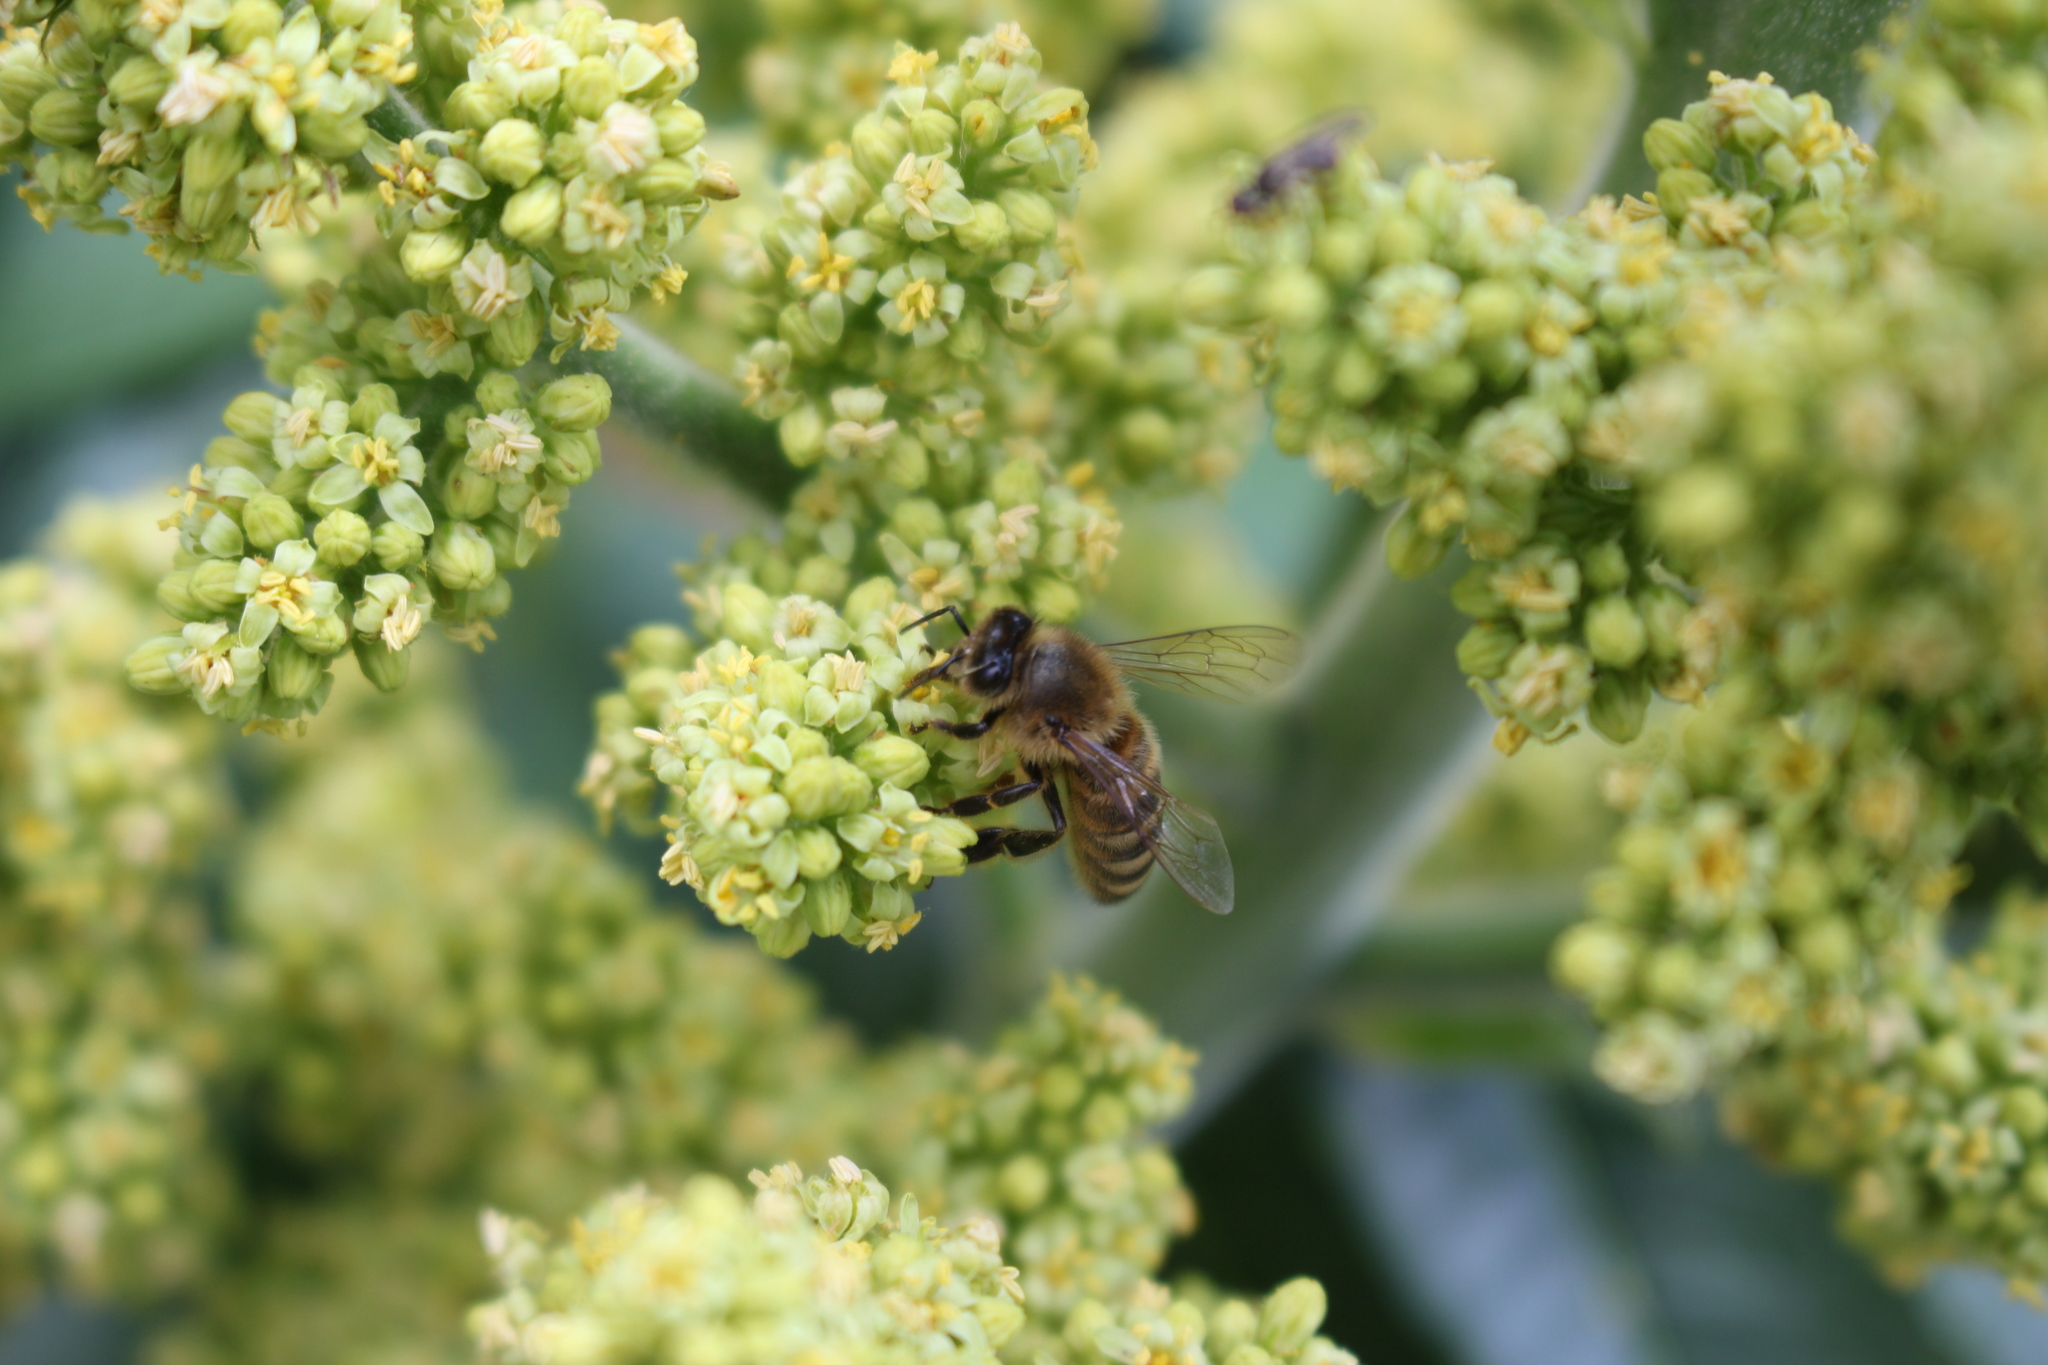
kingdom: Animalia
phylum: Arthropoda
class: Insecta
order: Hymenoptera
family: Apidae
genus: Apis
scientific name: Apis mellifera
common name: Honey bee
